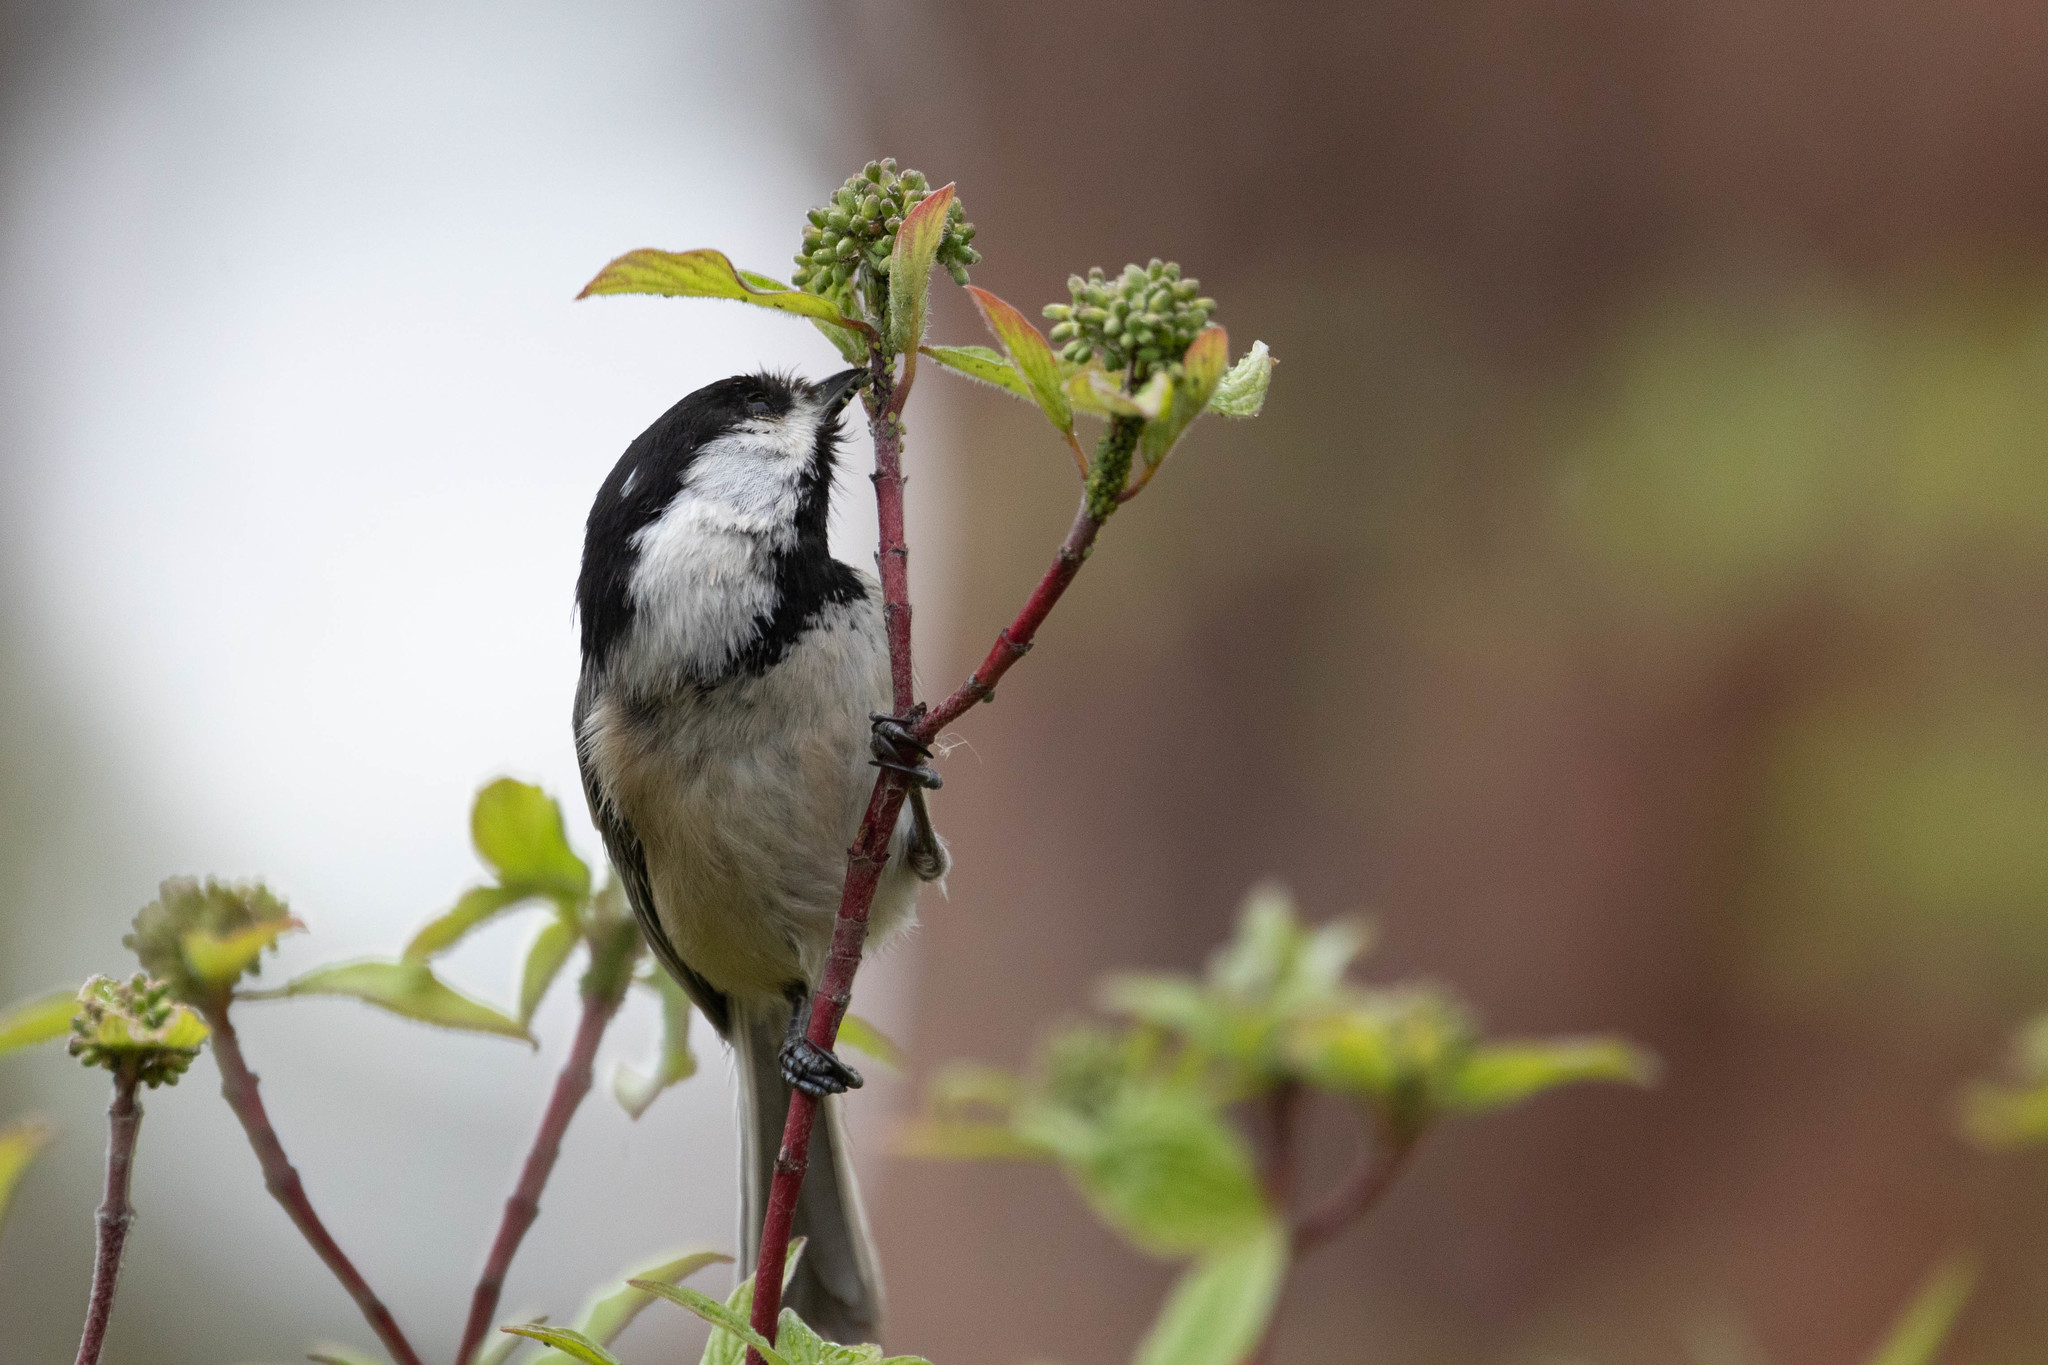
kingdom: Animalia
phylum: Chordata
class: Aves
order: Passeriformes
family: Paridae
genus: Poecile
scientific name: Poecile atricapillus
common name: Black-capped chickadee
